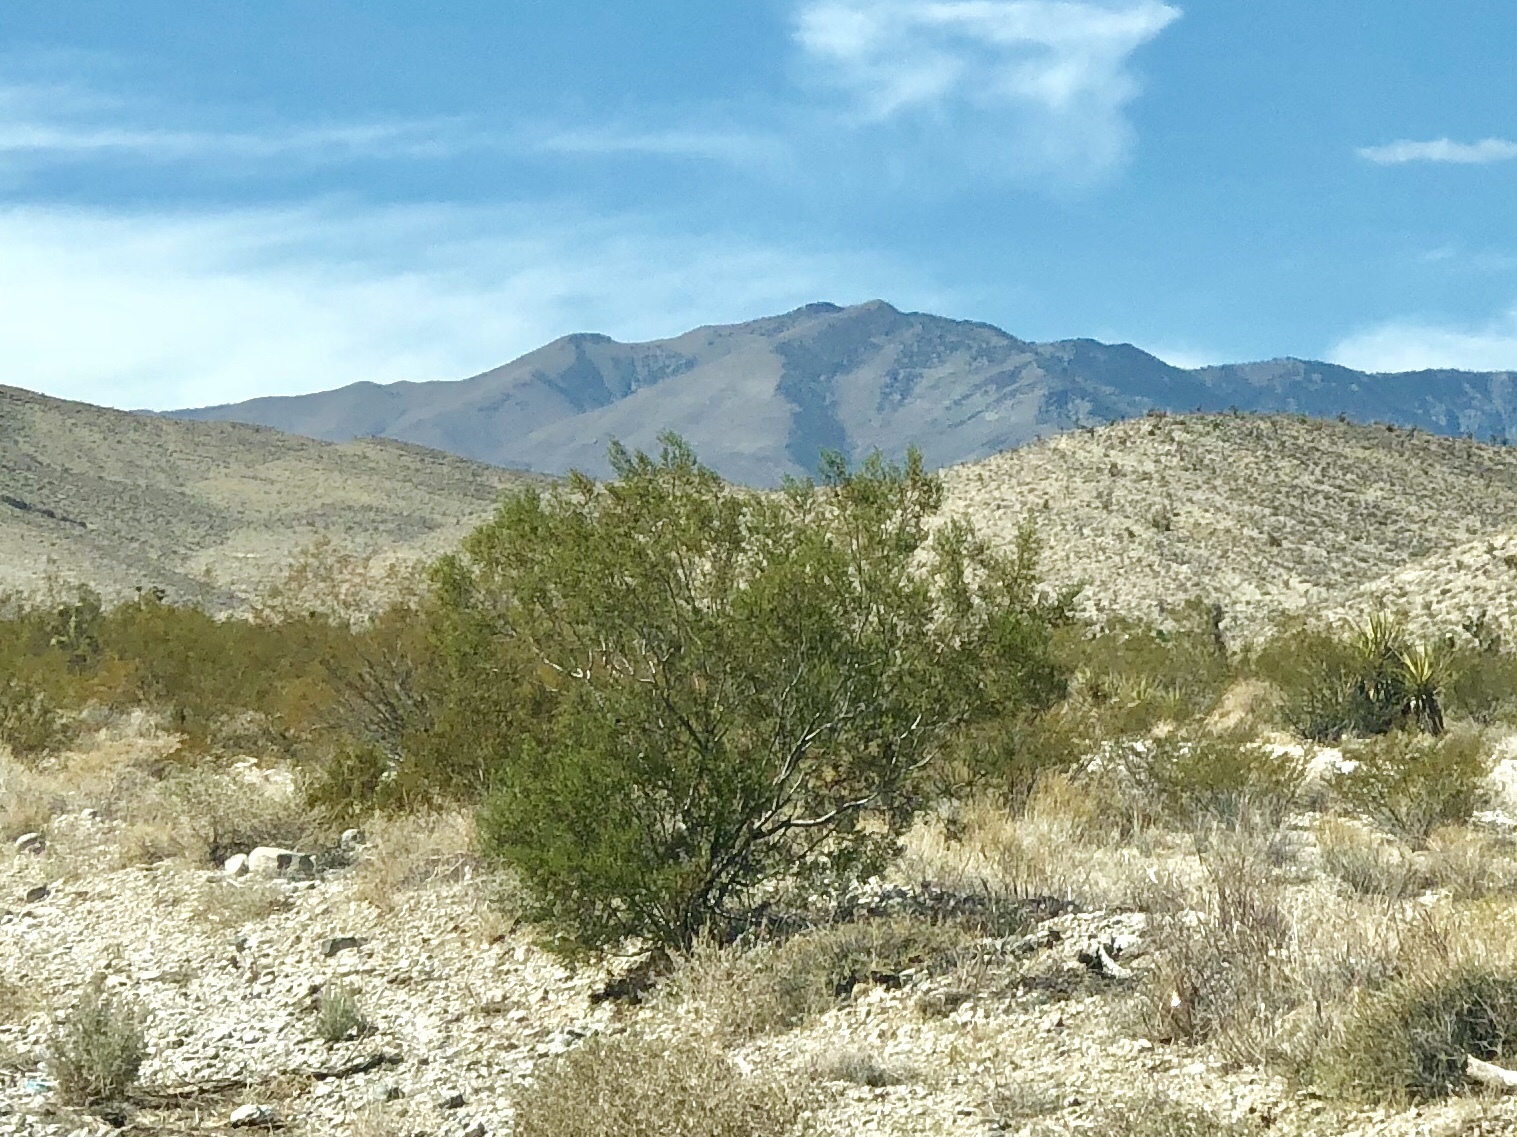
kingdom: Plantae
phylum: Tracheophyta
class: Magnoliopsida
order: Zygophyllales
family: Zygophyllaceae
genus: Larrea
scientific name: Larrea tridentata
